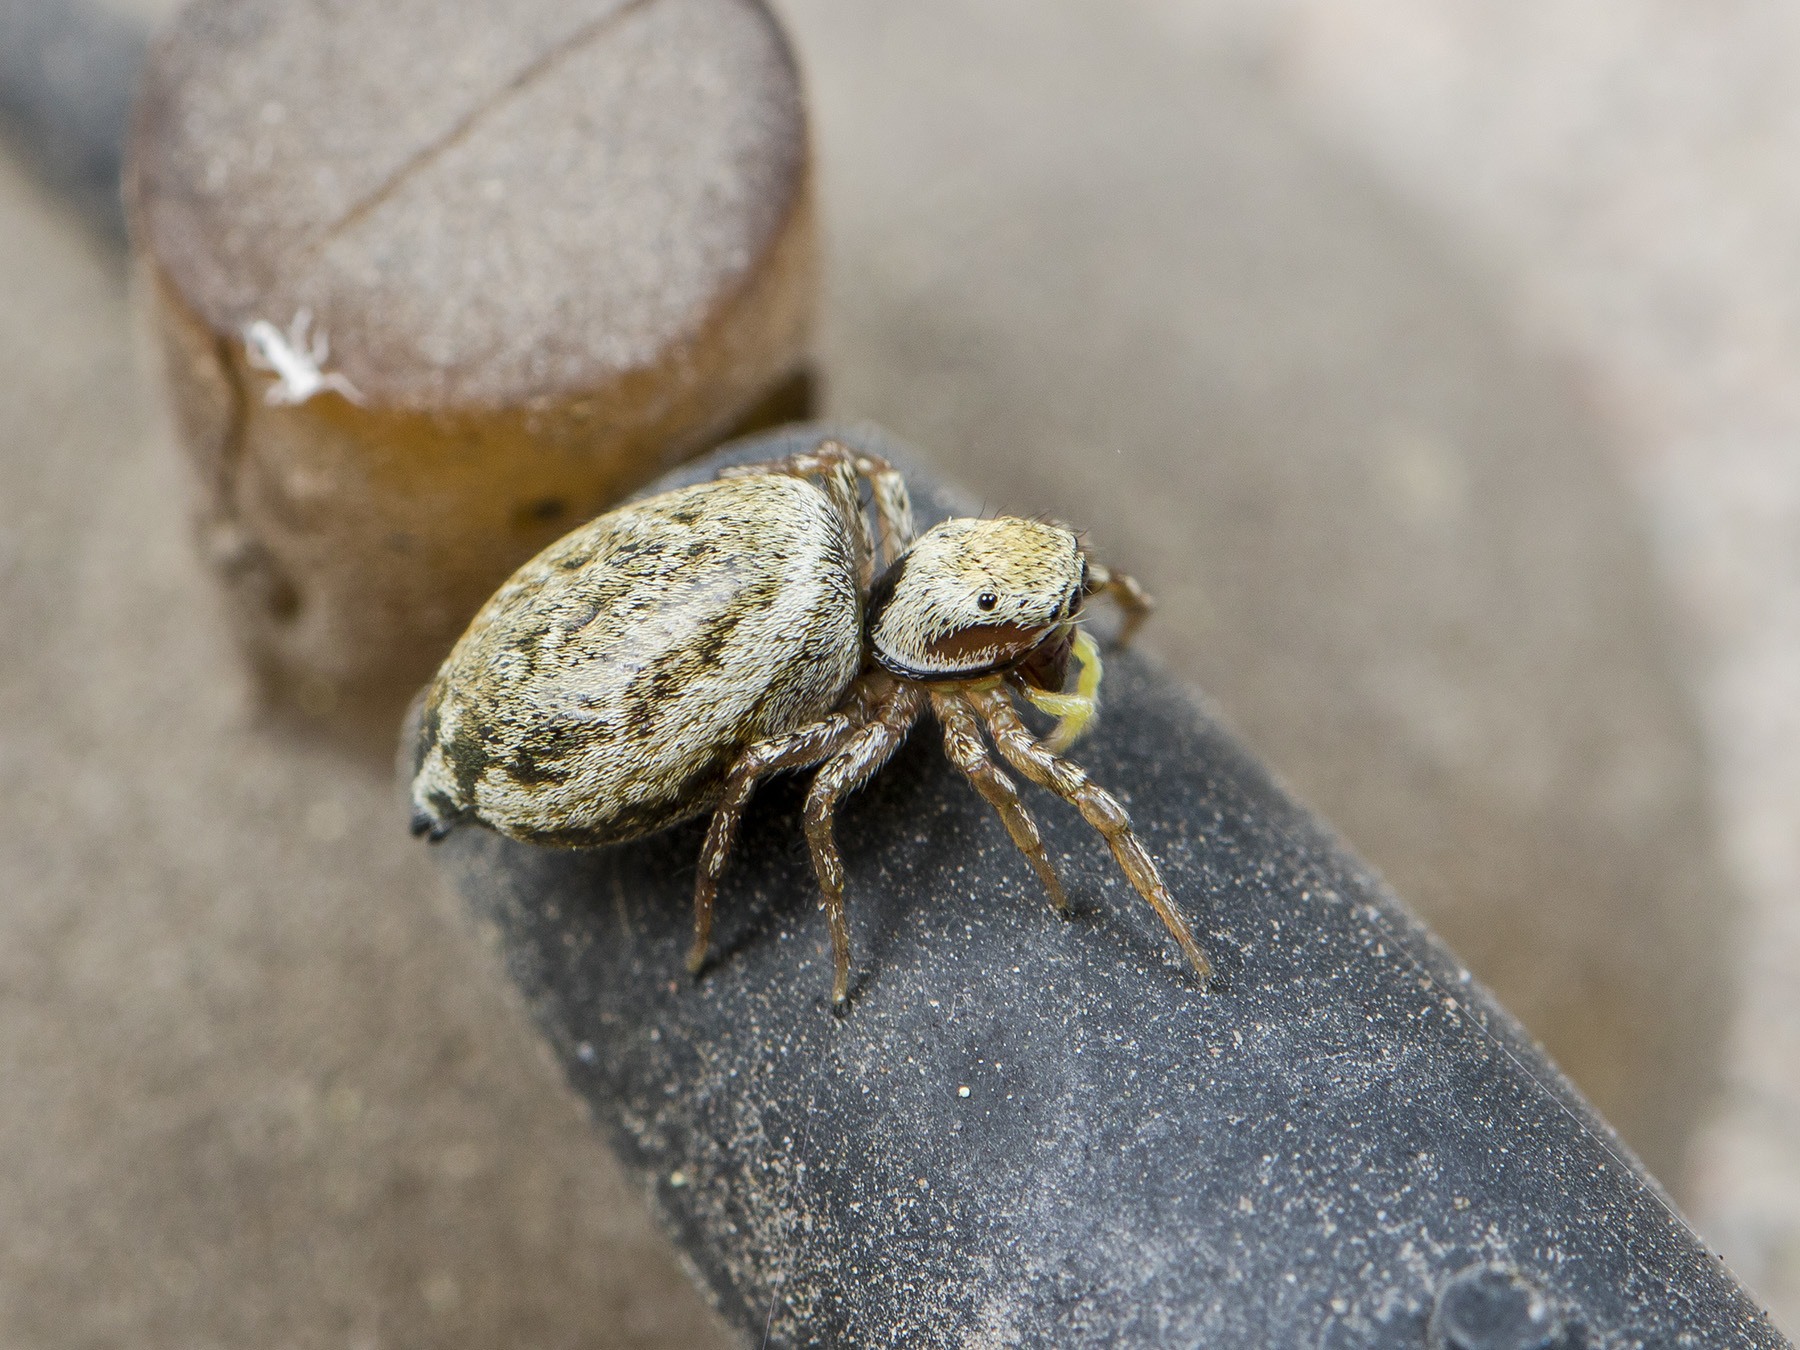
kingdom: Animalia
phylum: Arthropoda
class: Arachnida
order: Araneae
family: Salticidae
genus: Heliophanus
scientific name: Heliophanus potanini
